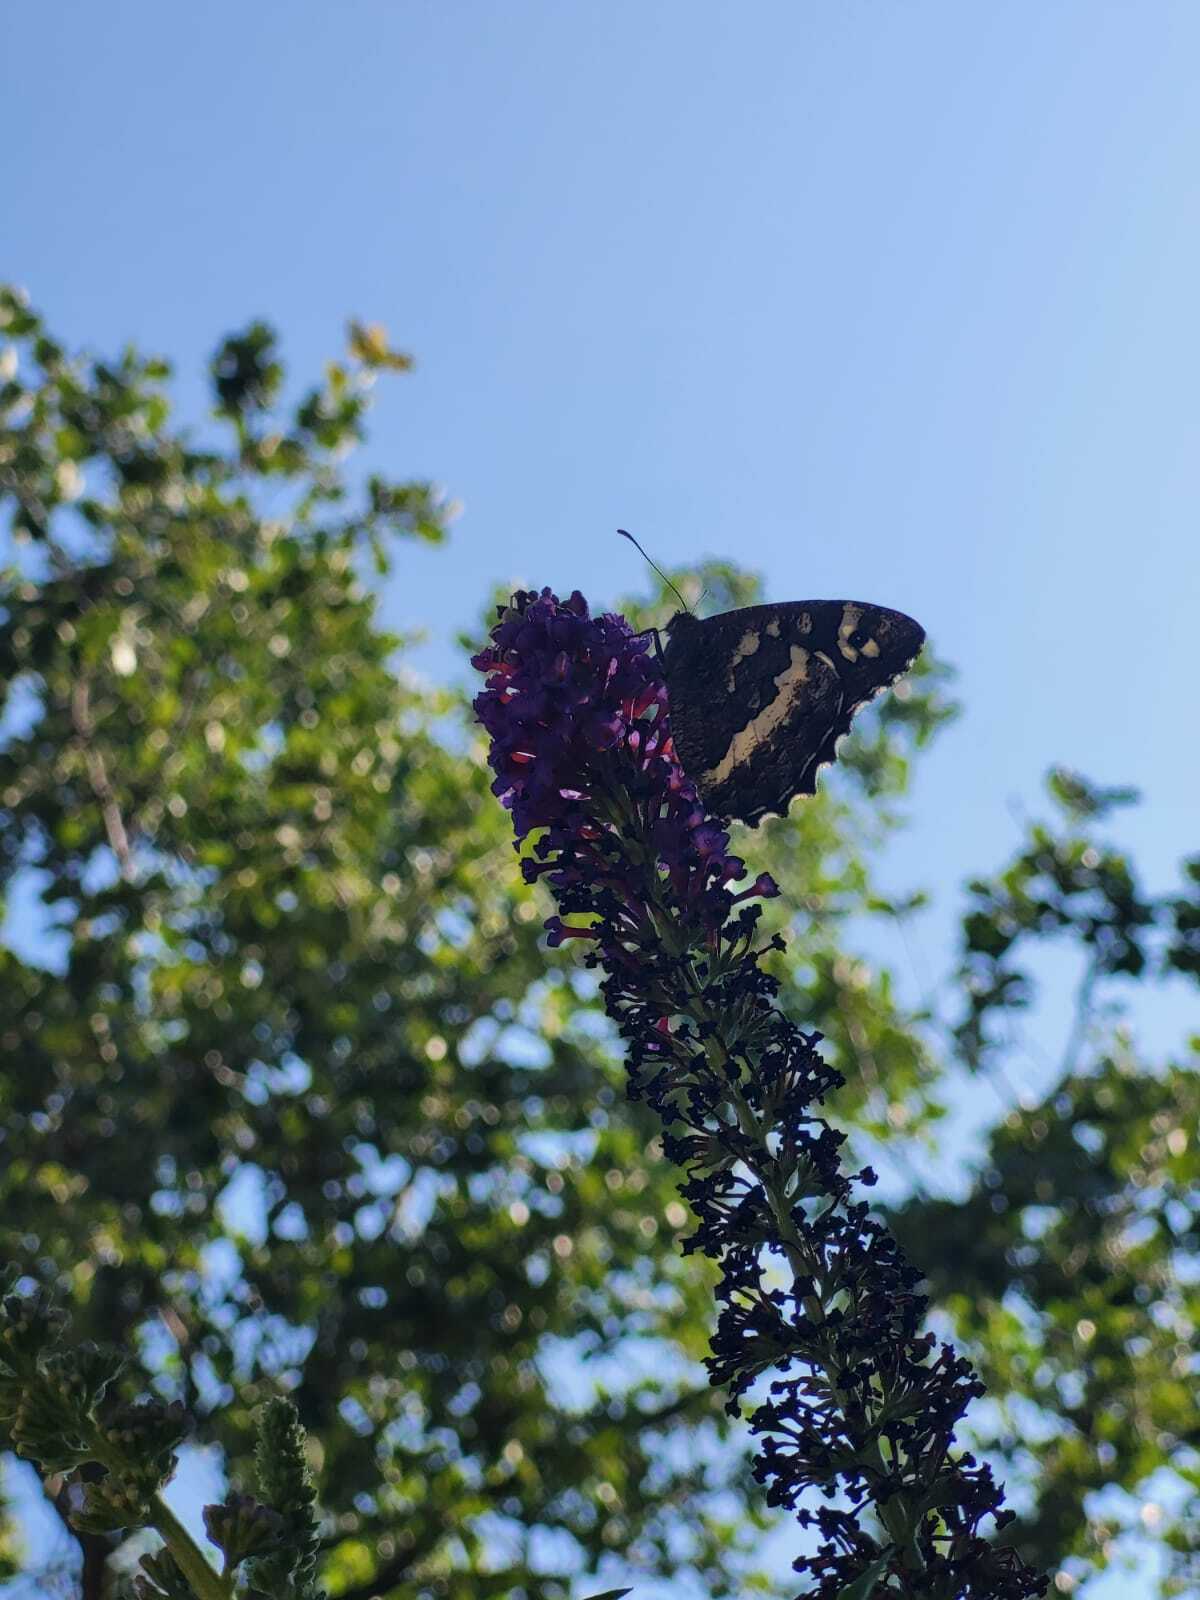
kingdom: Animalia
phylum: Arthropoda
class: Insecta
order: Lepidoptera
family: Lycaenidae
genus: Loweia
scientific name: Loweia tityrus
